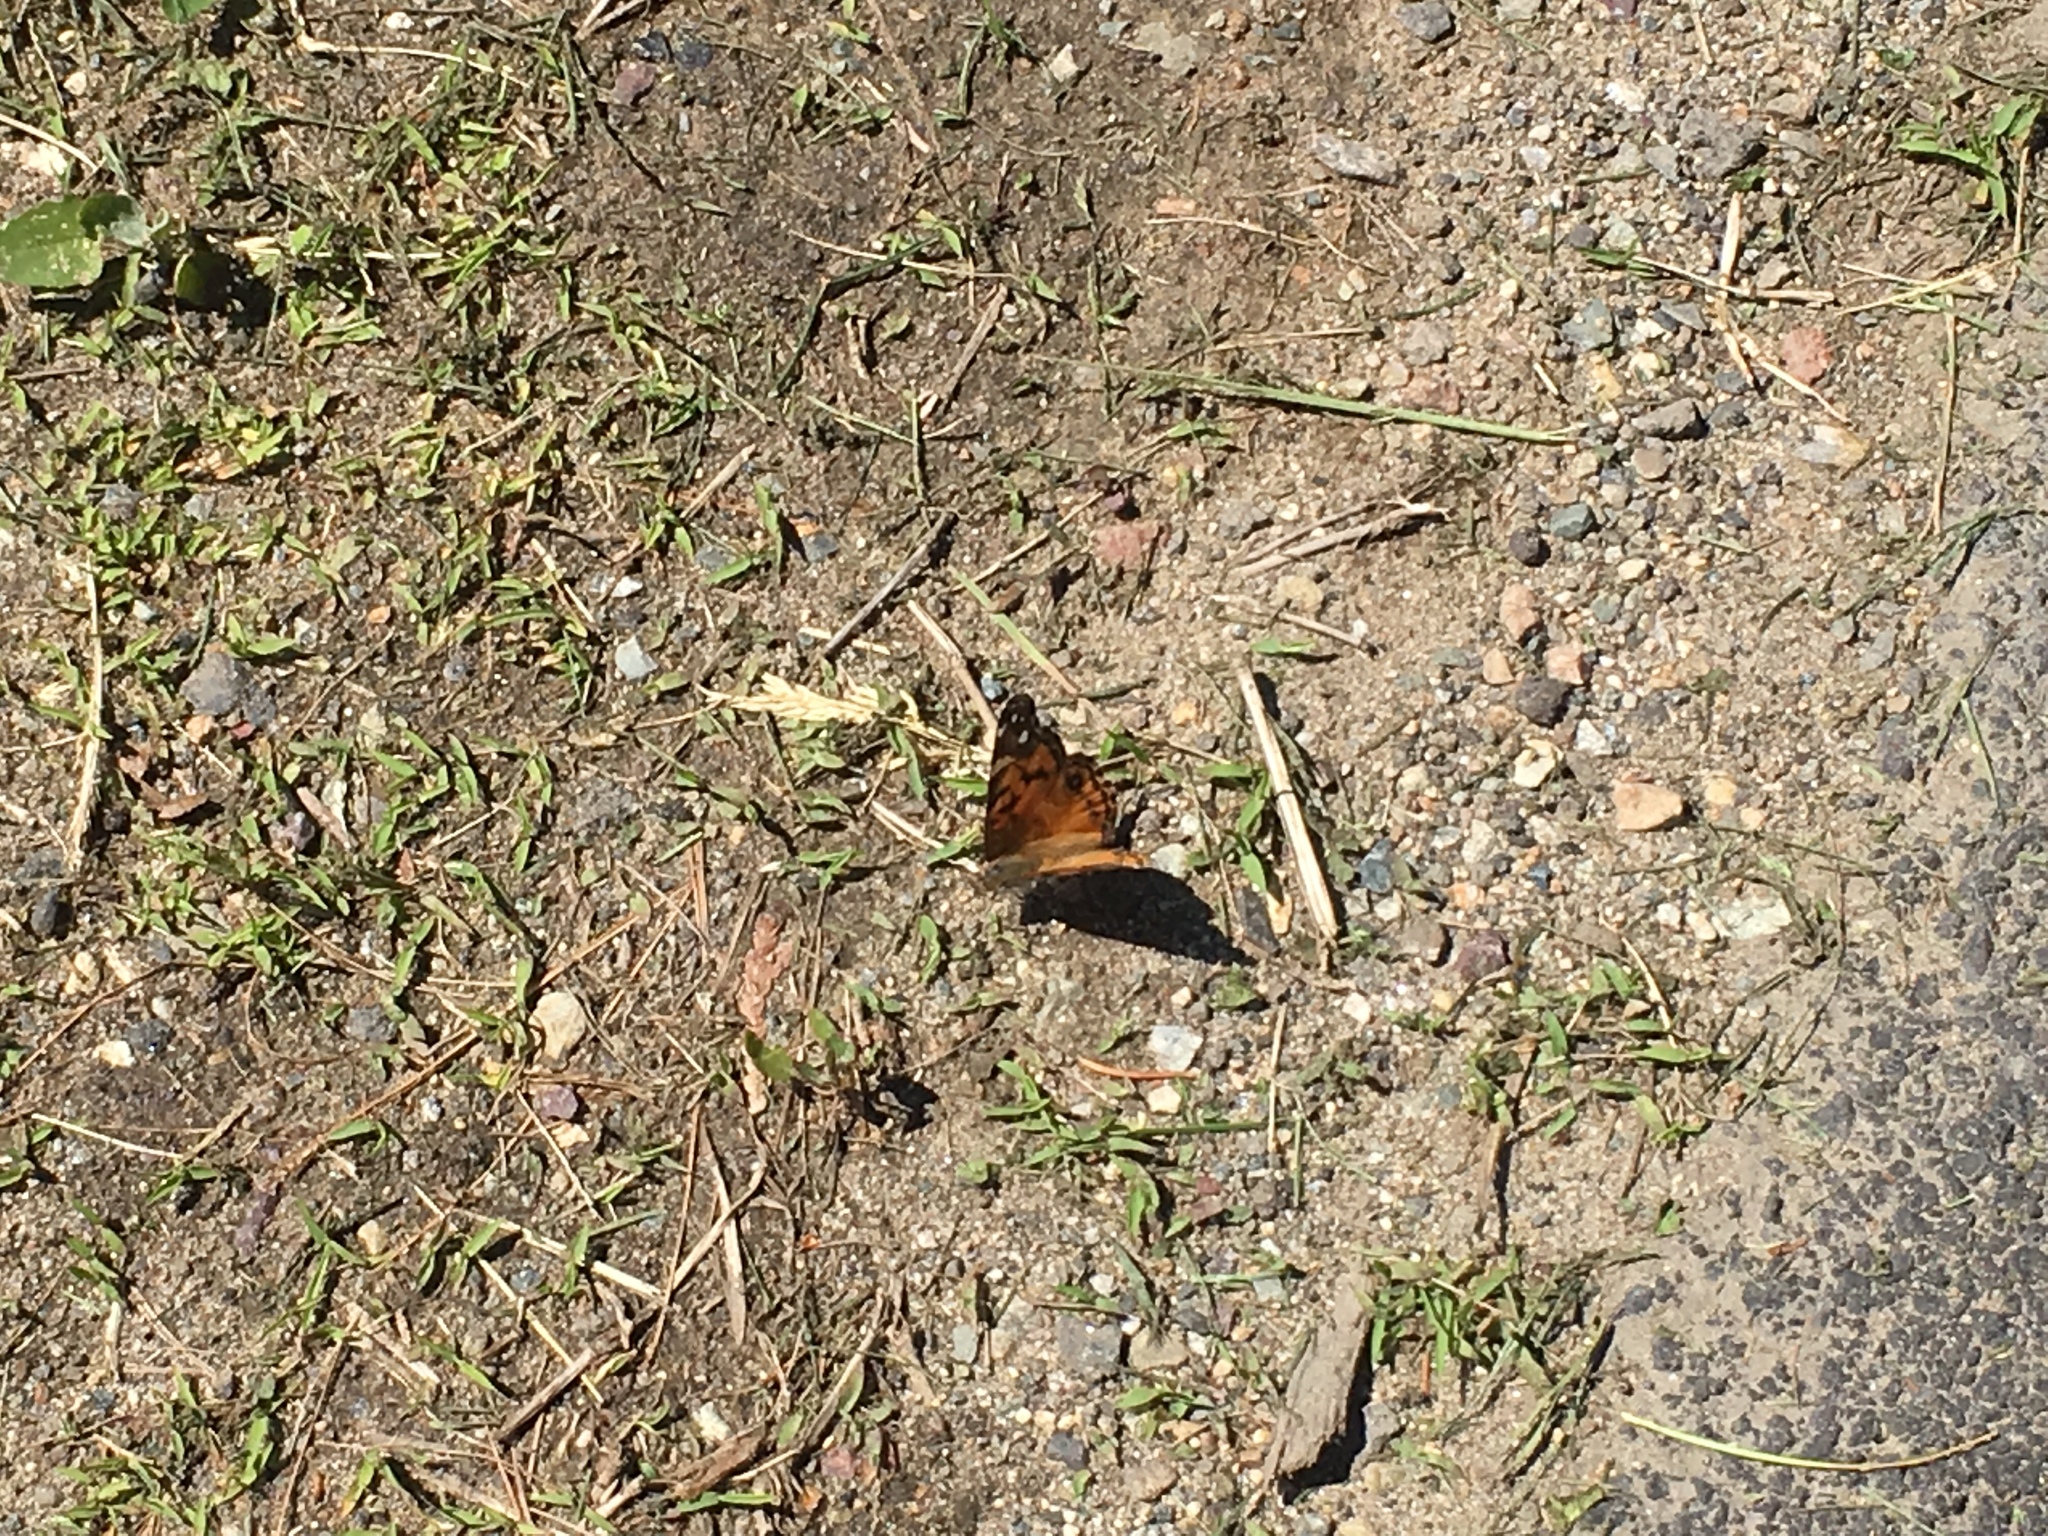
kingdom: Animalia
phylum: Arthropoda
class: Insecta
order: Lepidoptera
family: Nymphalidae
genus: Vanessa
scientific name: Vanessa virginiensis
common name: American lady
